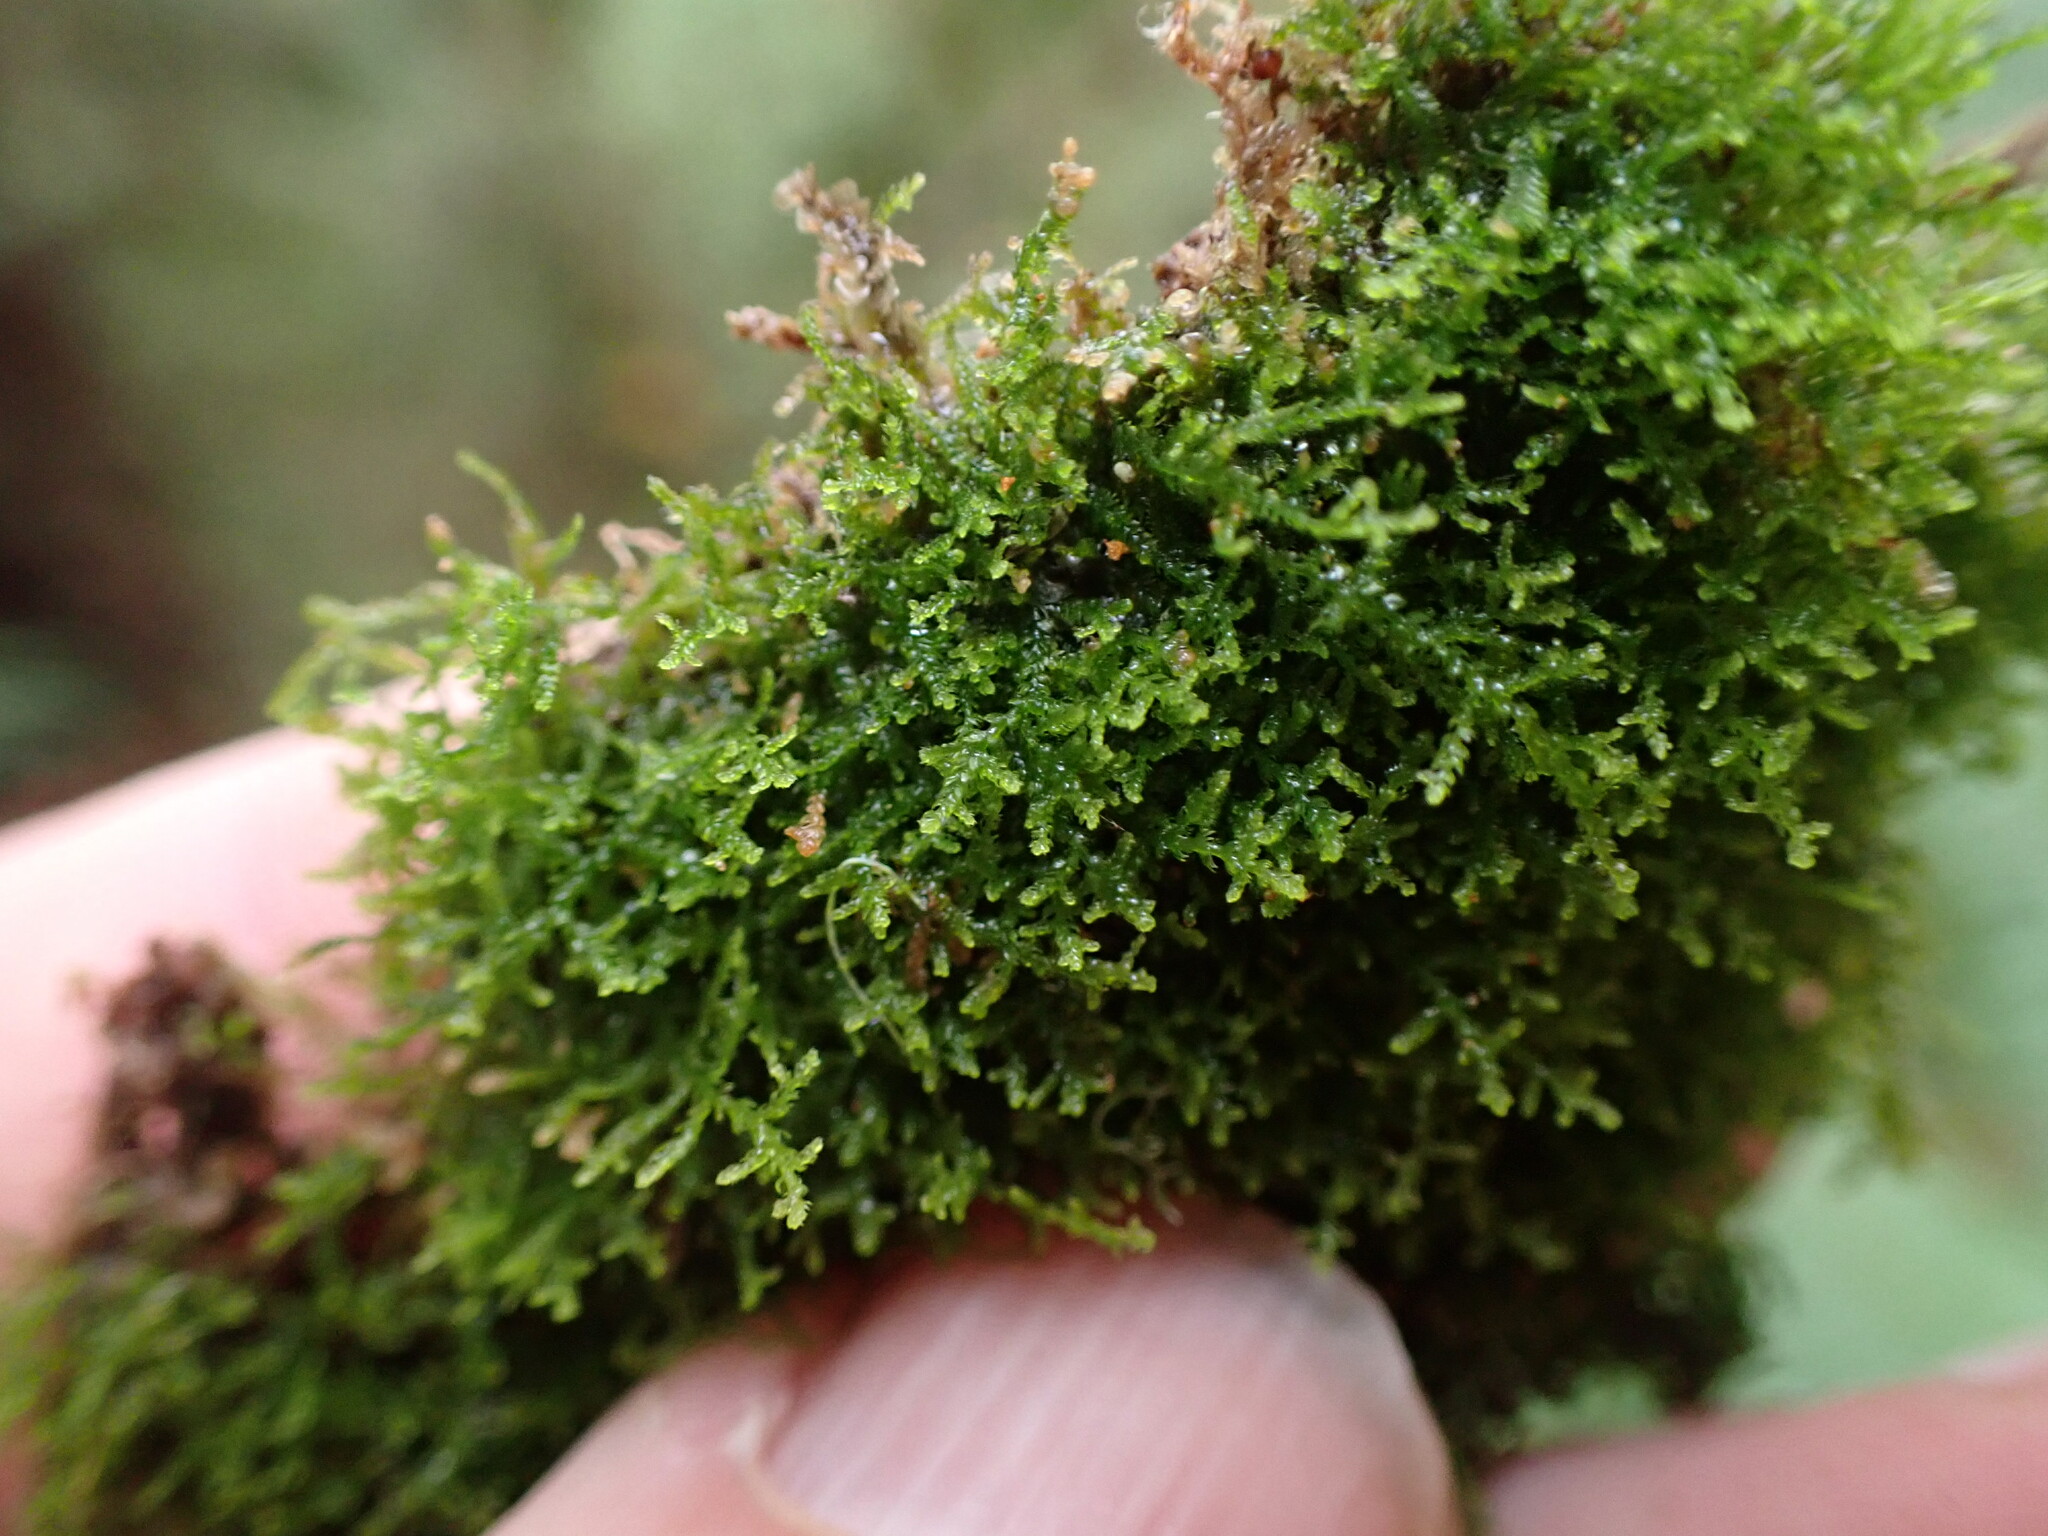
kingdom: Plantae
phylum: Marchantiophyta
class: Jungermanniopsida
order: Jungermanniales
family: Lepidoziaceae
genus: Lepidozia
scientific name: Lepidozia reptans
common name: Creeping fingerwort
